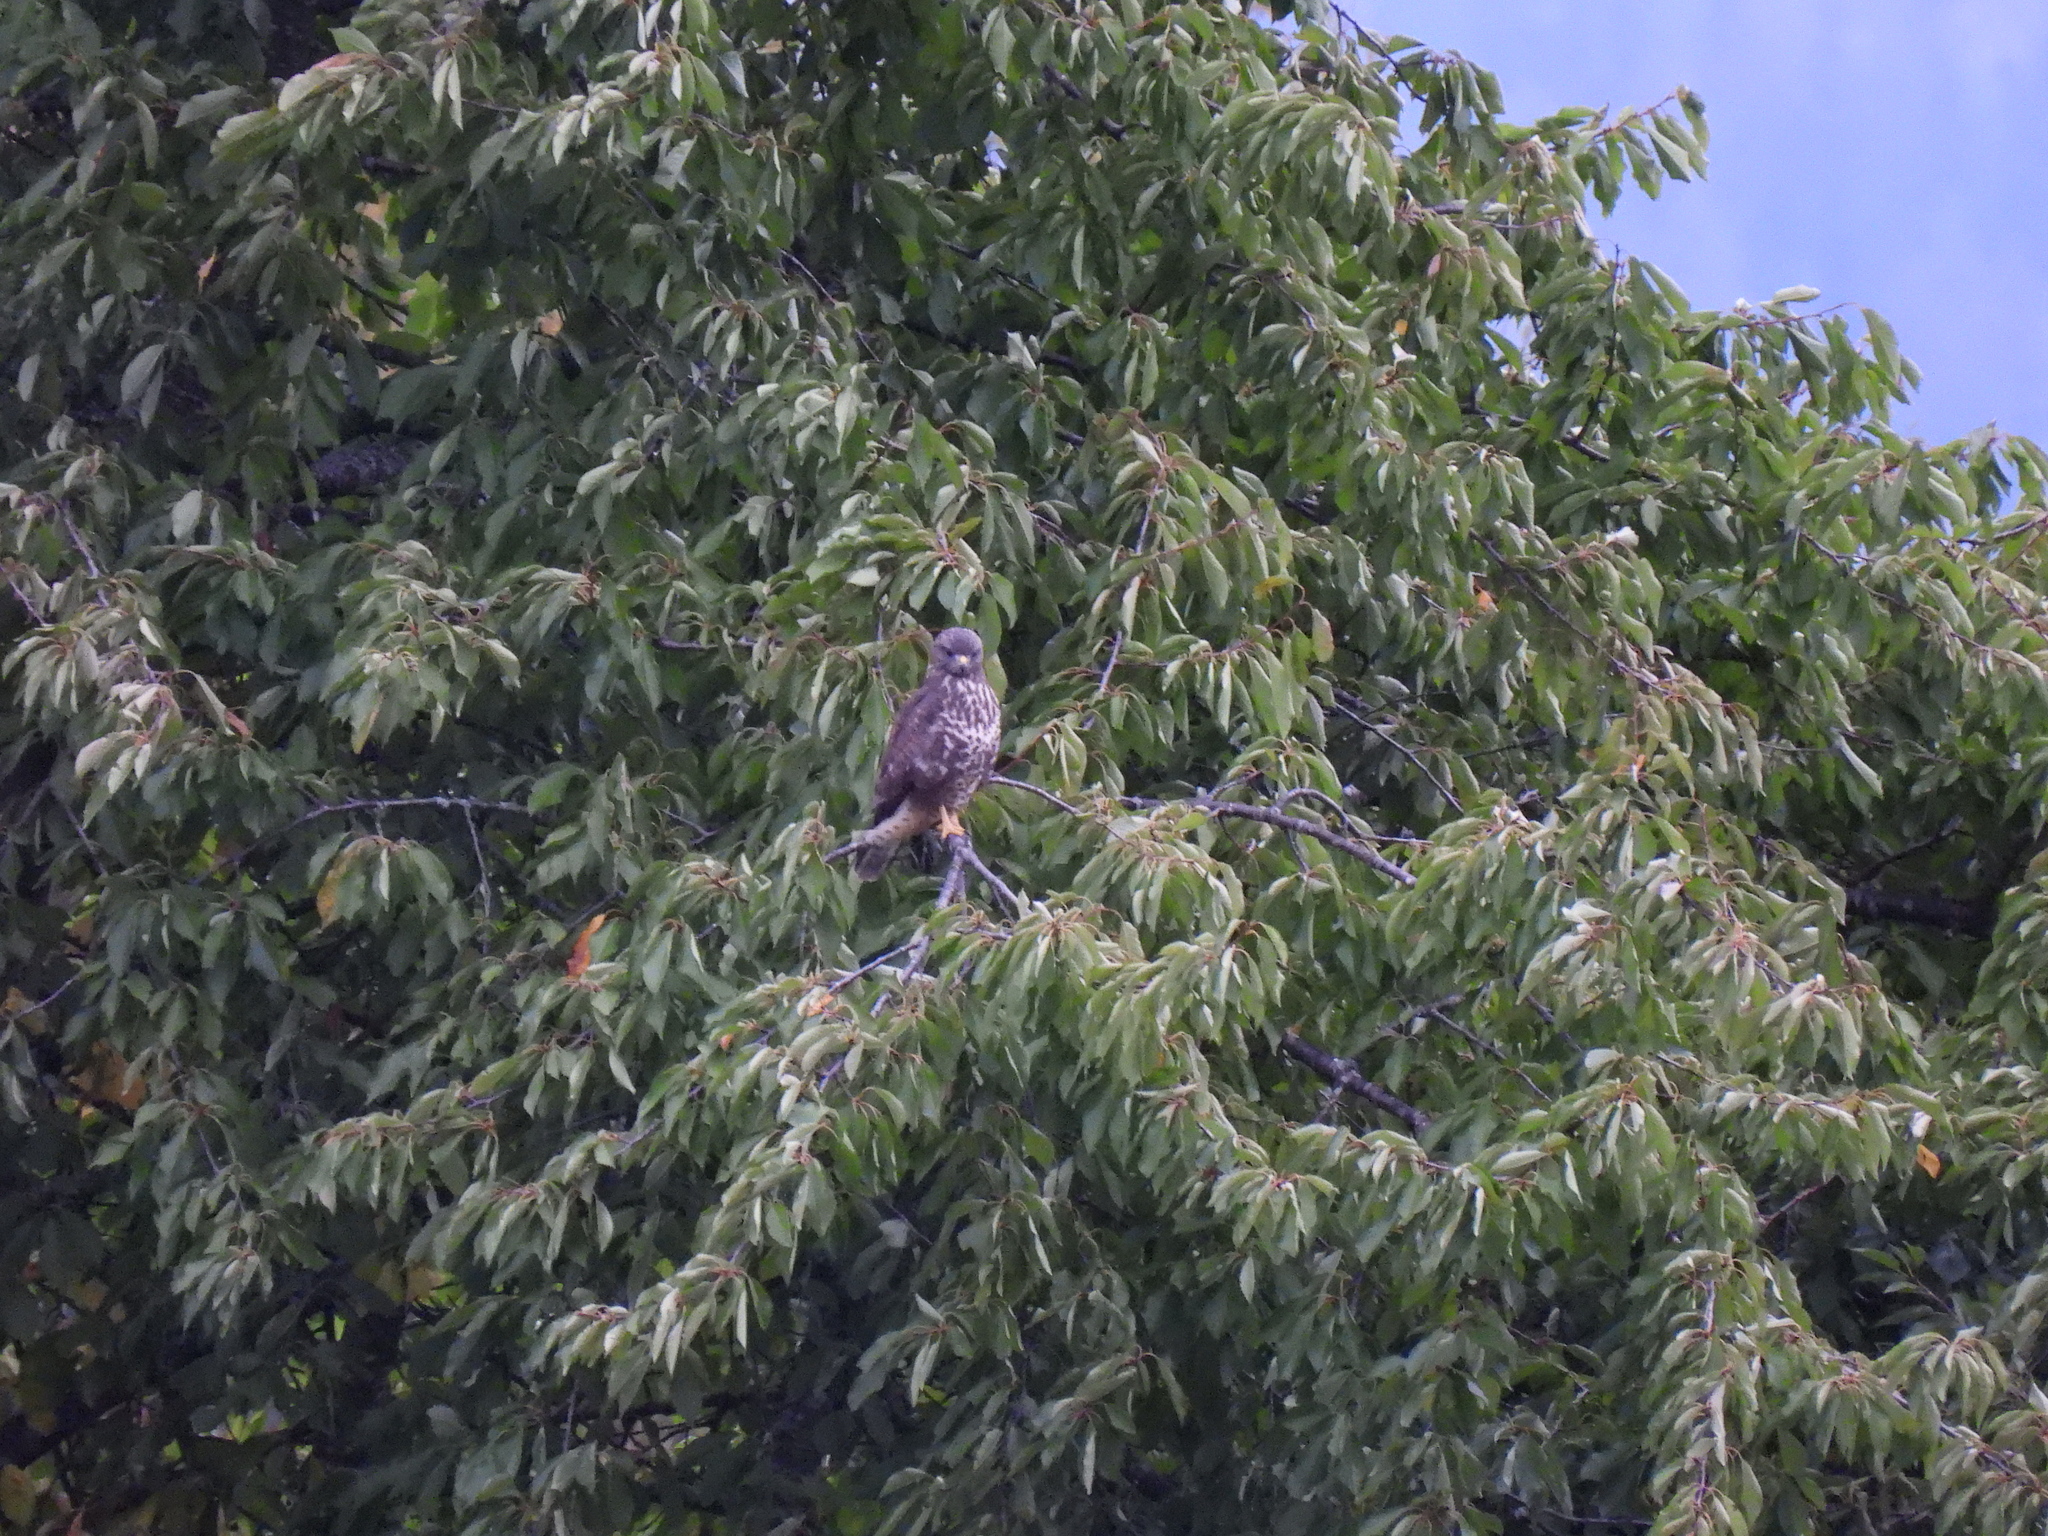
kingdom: Animalia
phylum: Chordata
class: Aves
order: Accipitriformes
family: Accipitridae
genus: Buteo
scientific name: Buteo buteo
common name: Common buzzard
